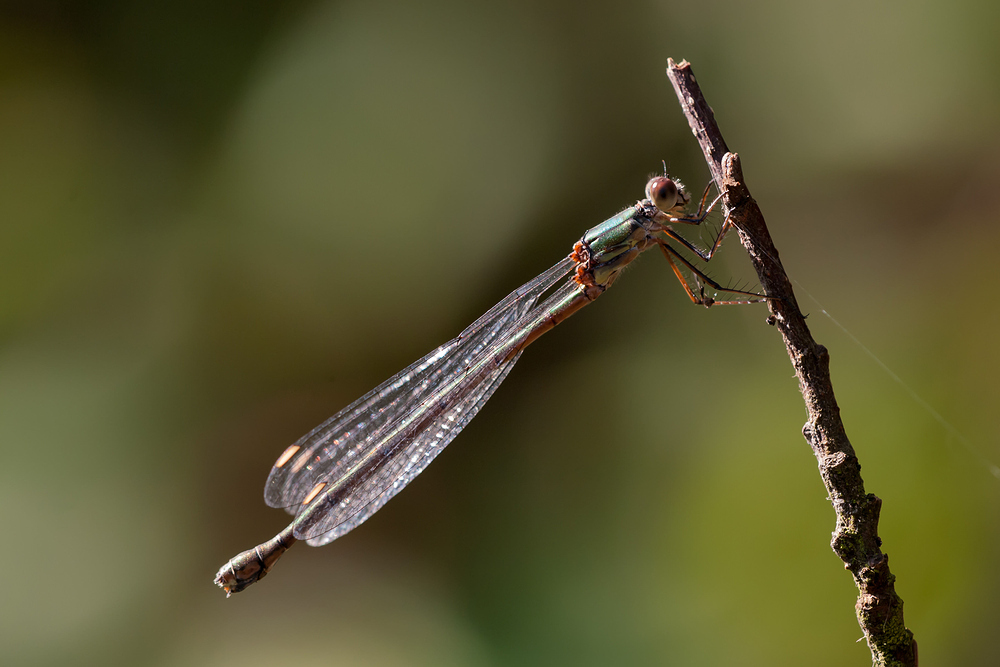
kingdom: Animalia
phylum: Arthropoda
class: Insecta
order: Odonata
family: Lestidae
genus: Chalcolestes
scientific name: Chalcolestes viridis
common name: Green emerald damselfly
